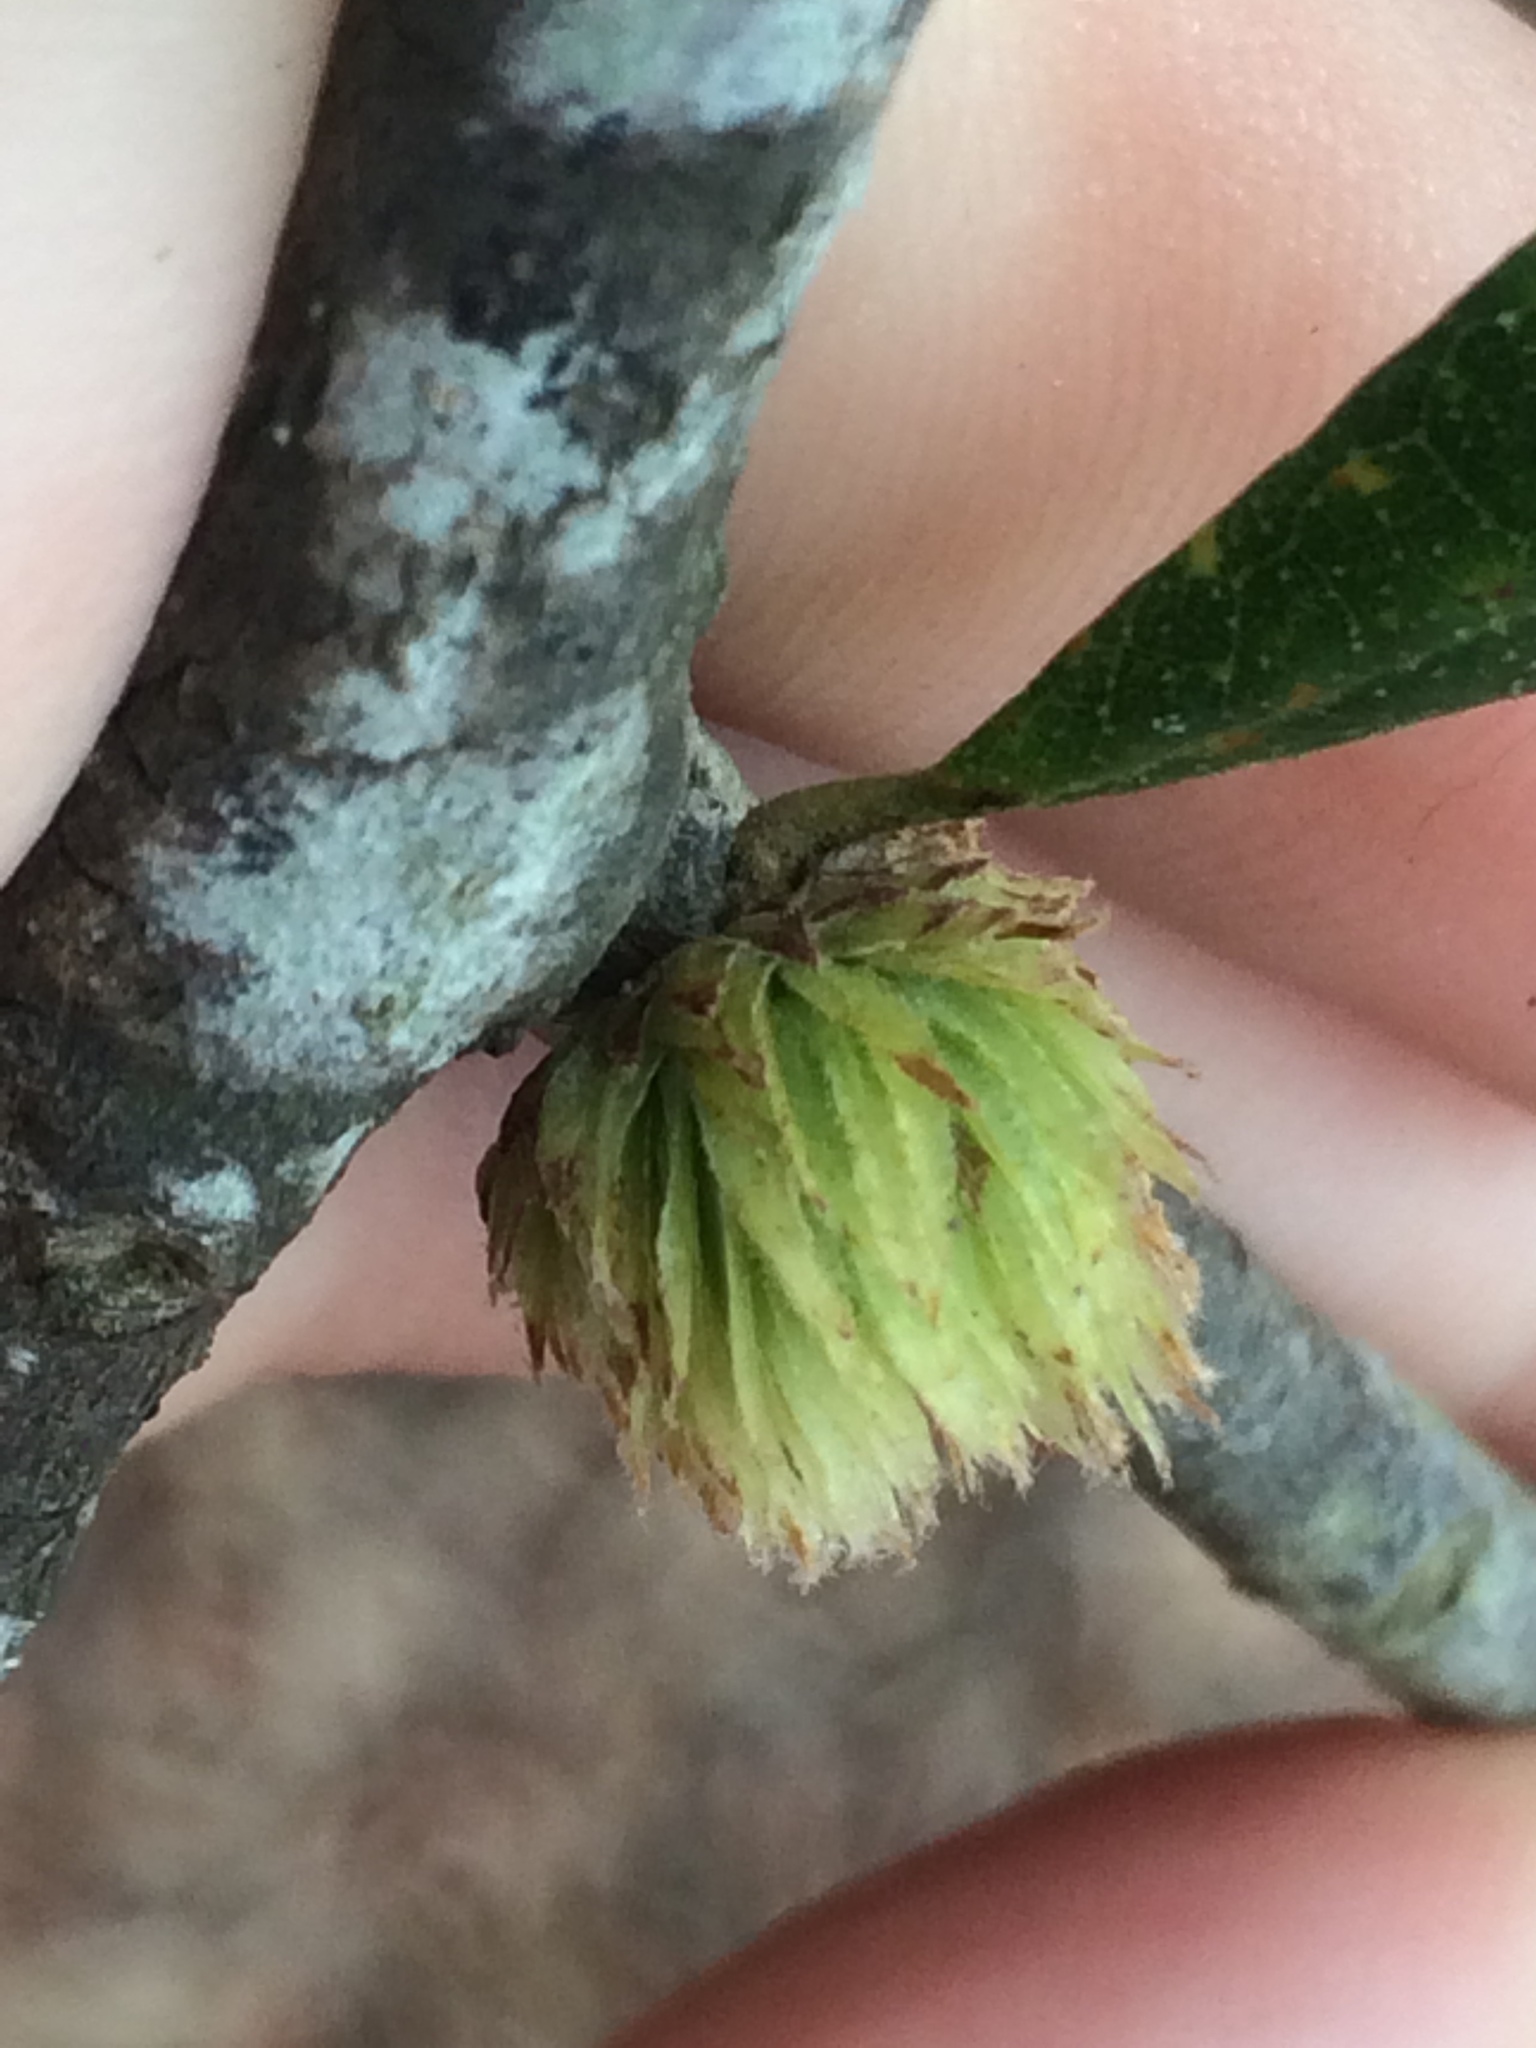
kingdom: Animalia
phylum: Arthropoda
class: Insecta
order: Hymenoptera
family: Cynipidae
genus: Andricus
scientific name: Andricus quercusfoliatus
